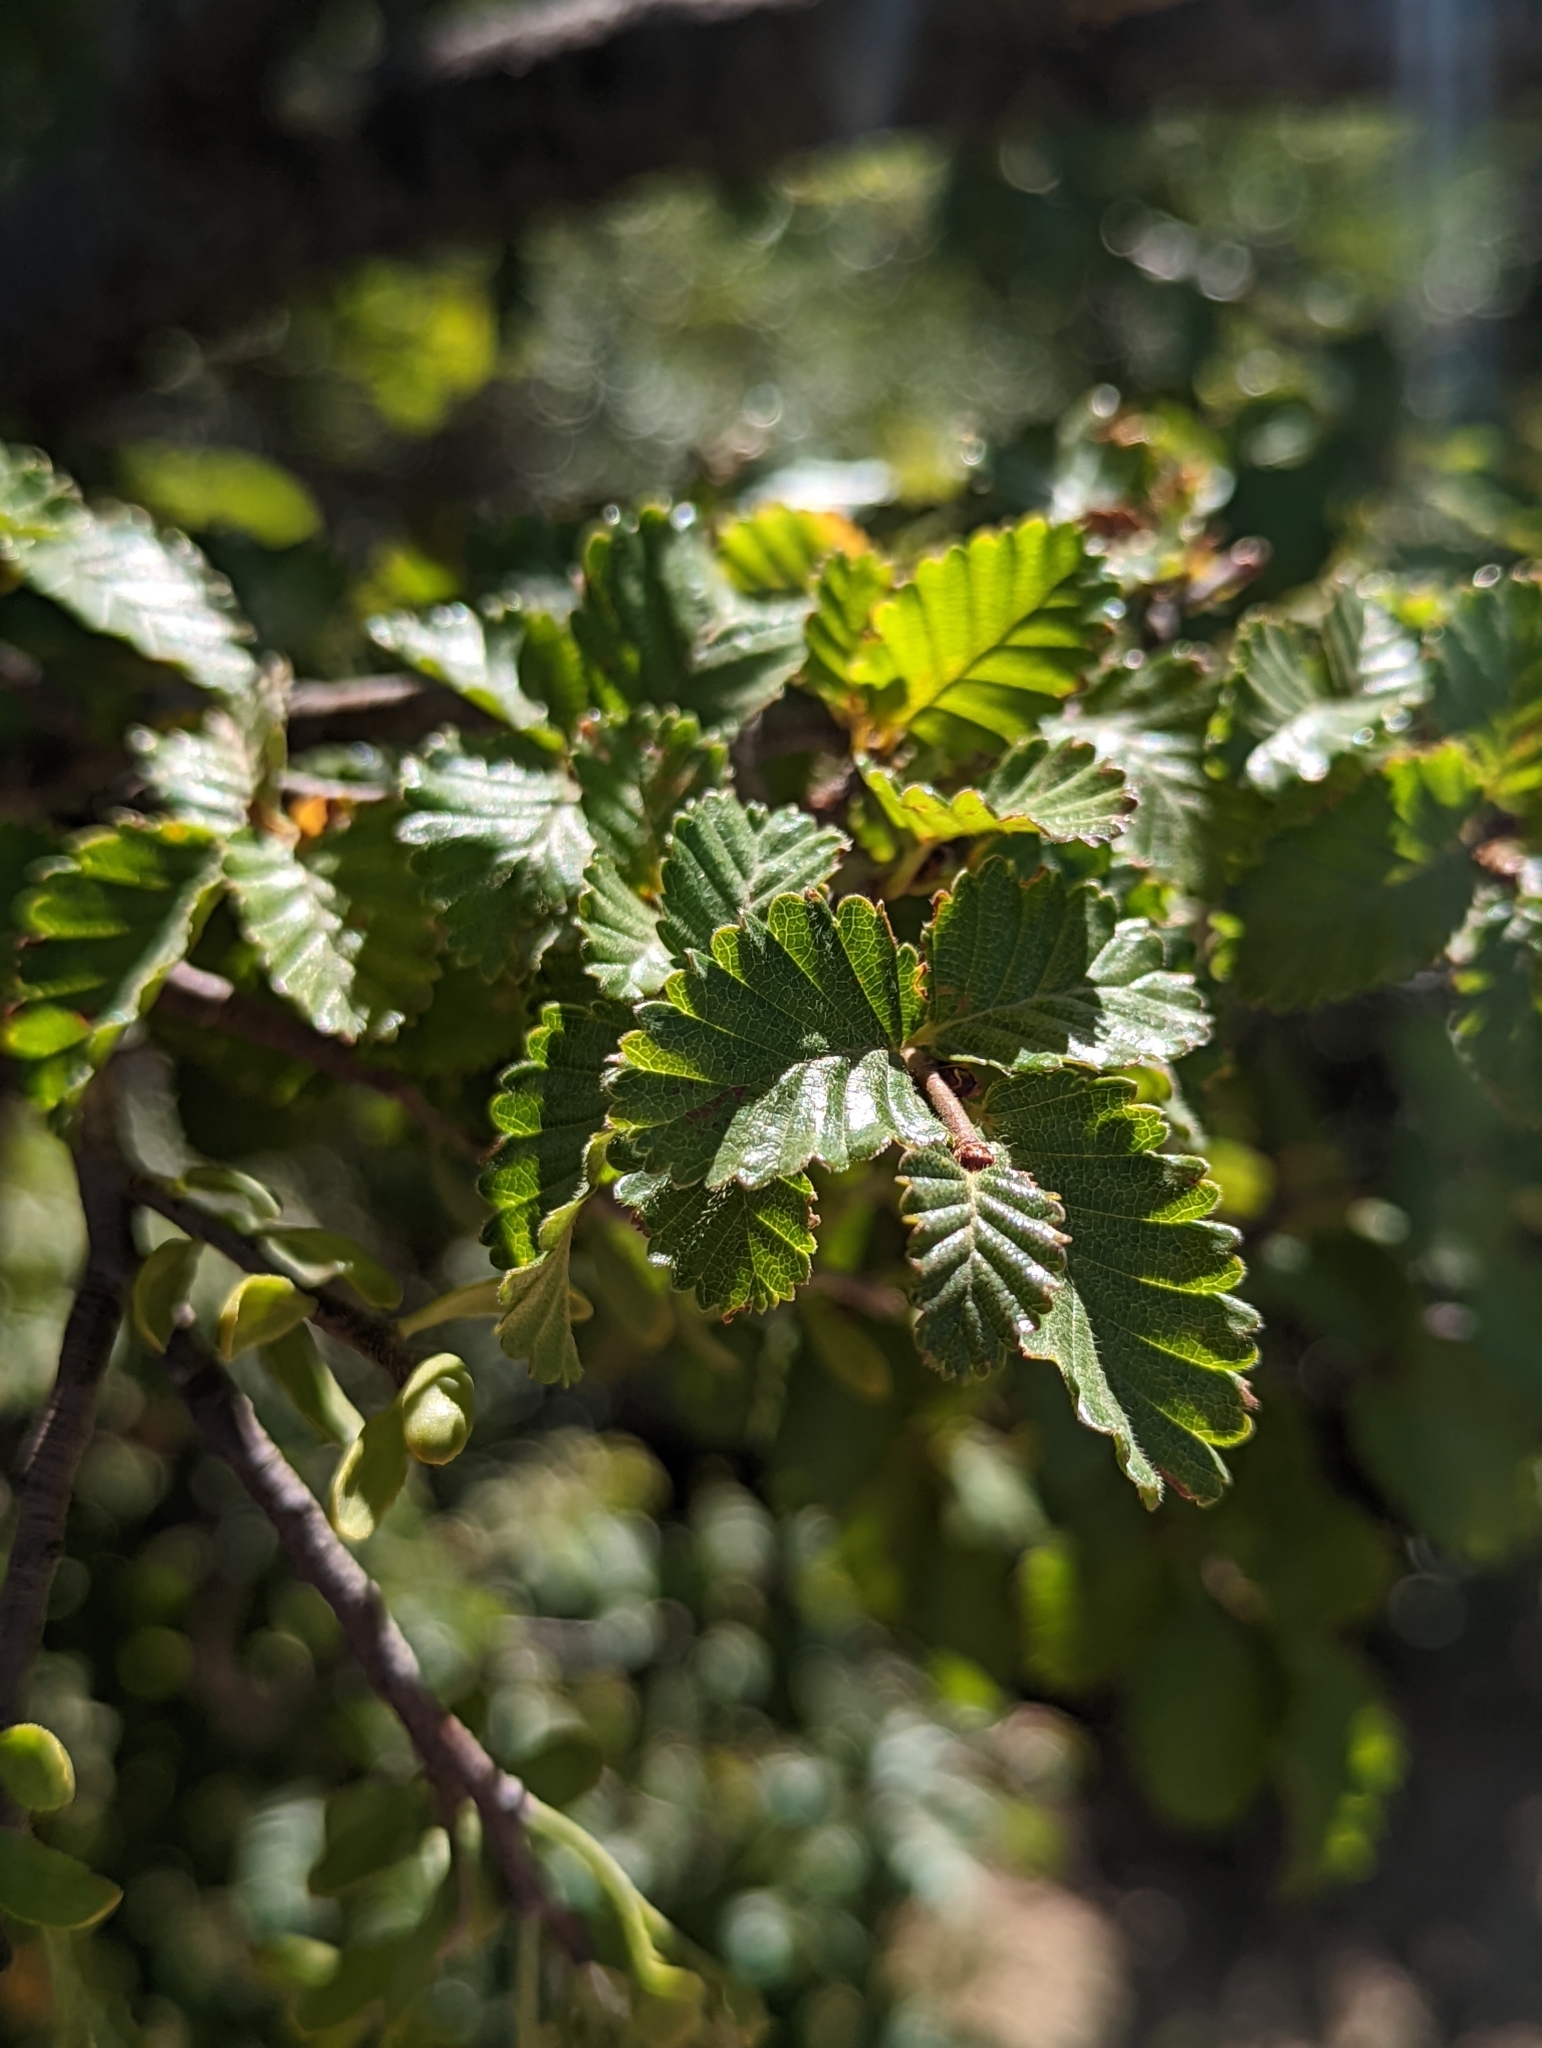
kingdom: Plantae
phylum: Tracheophyta
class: Magnoliopsida
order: Santalales
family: Misodendraceae
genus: Misodendrum
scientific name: Misodendrum quadriflorum
